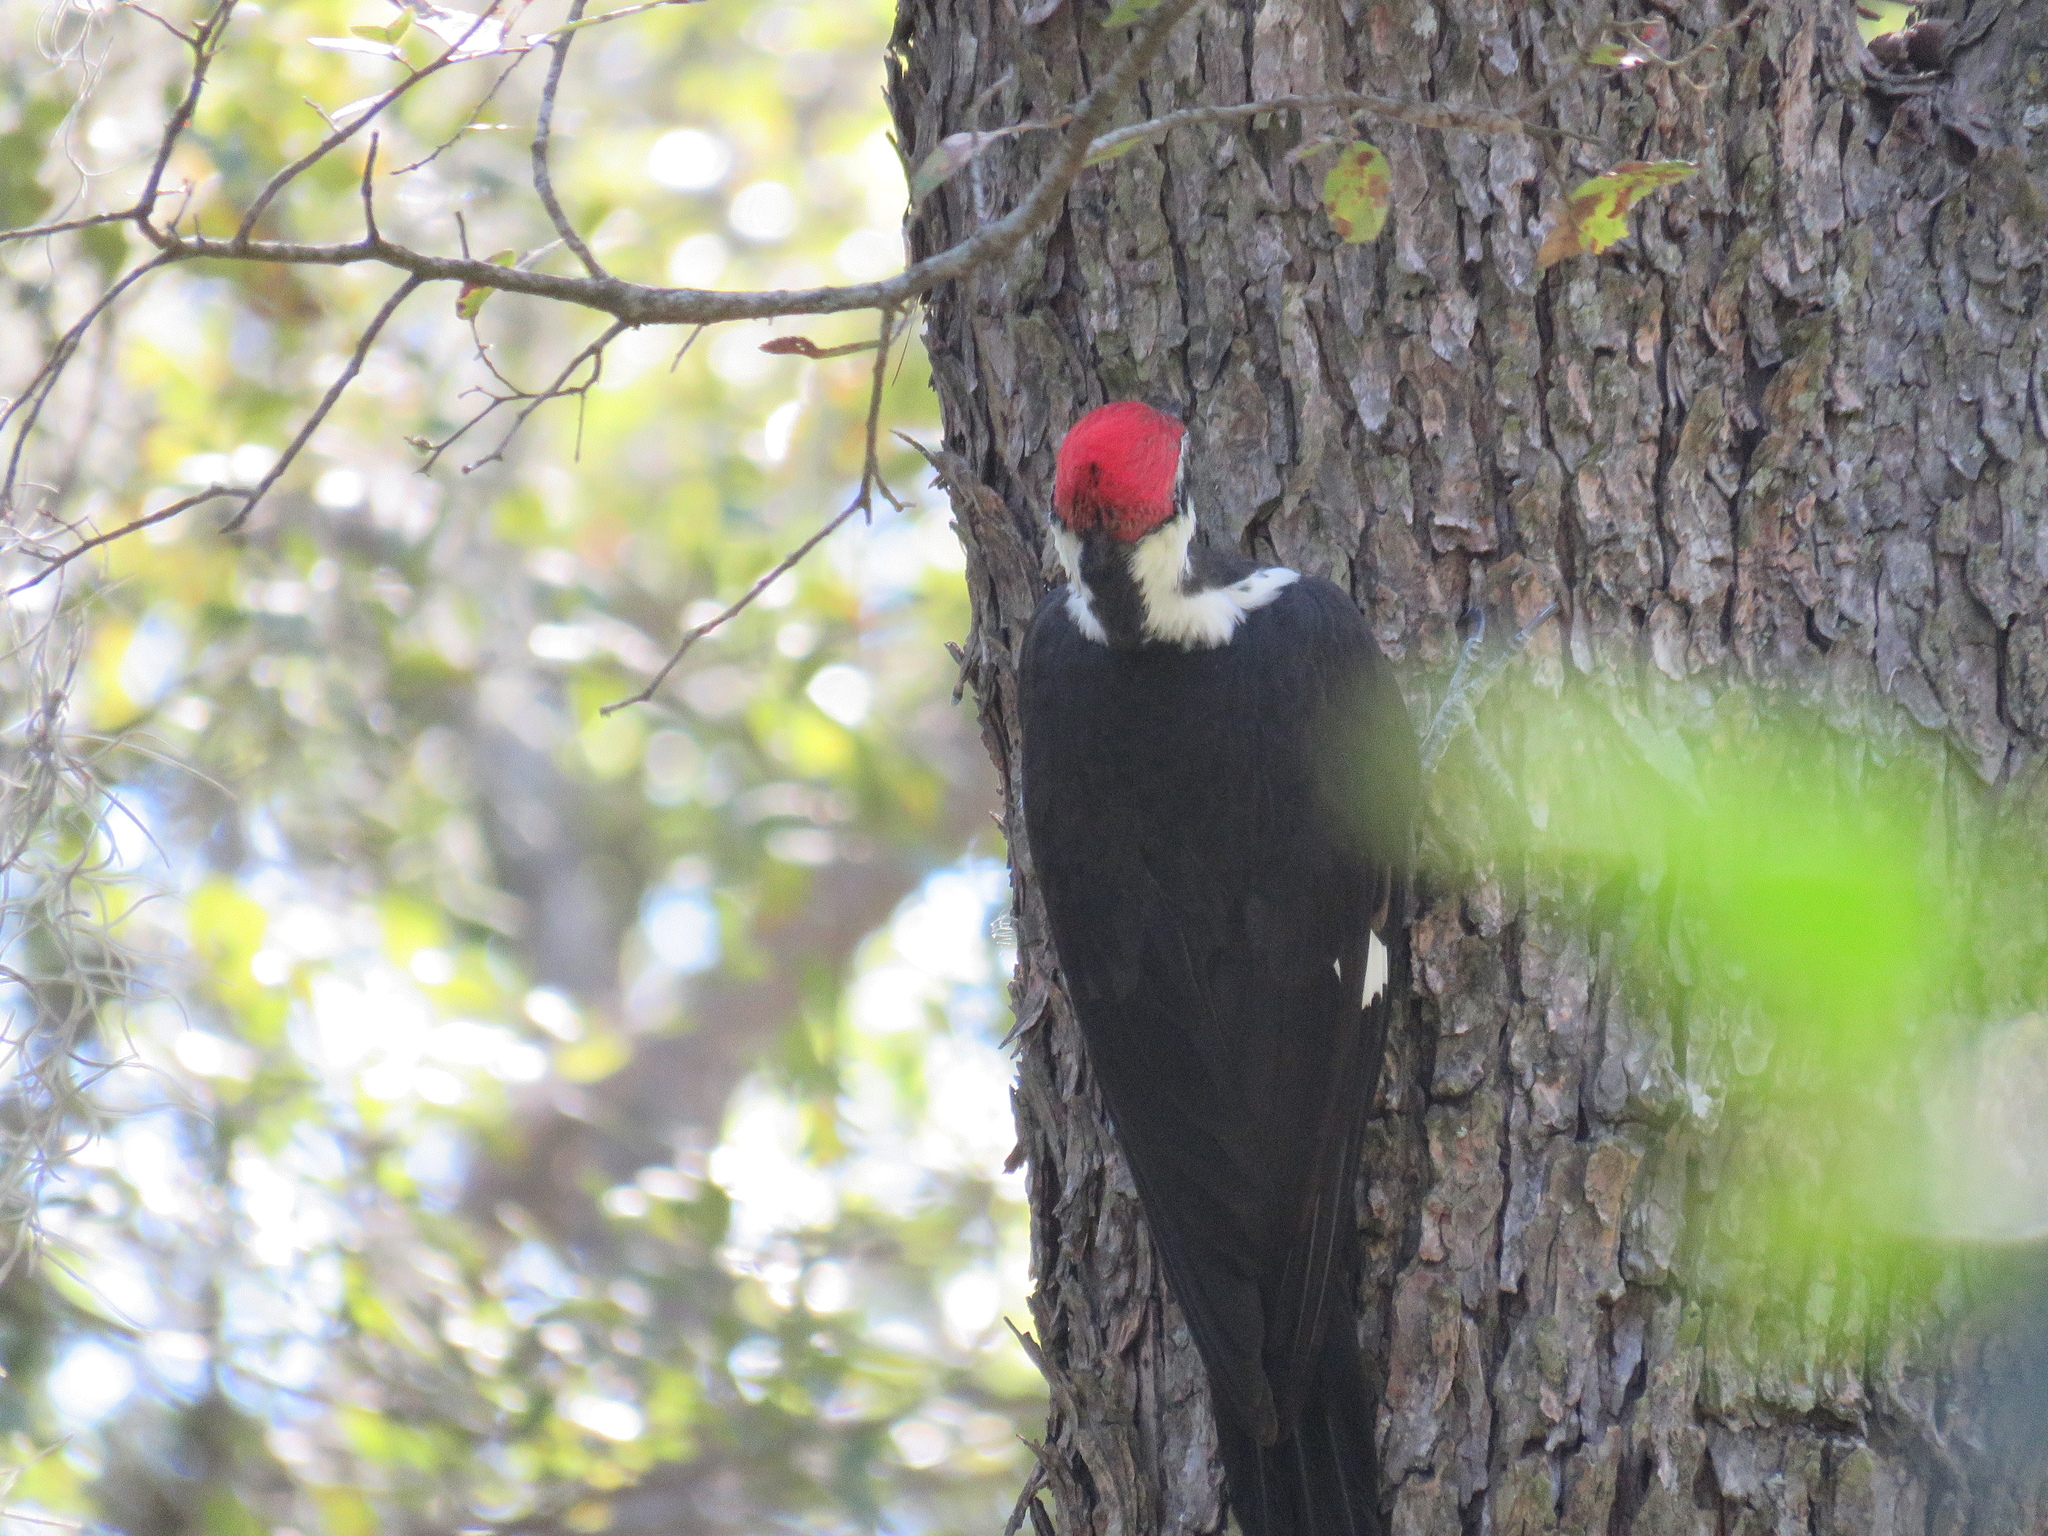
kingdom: Animalia
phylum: Chordata
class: Aves
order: Piciformes
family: Picidae
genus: Dryocopus
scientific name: Dryocopus pileatus
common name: Pileated woodpecker
